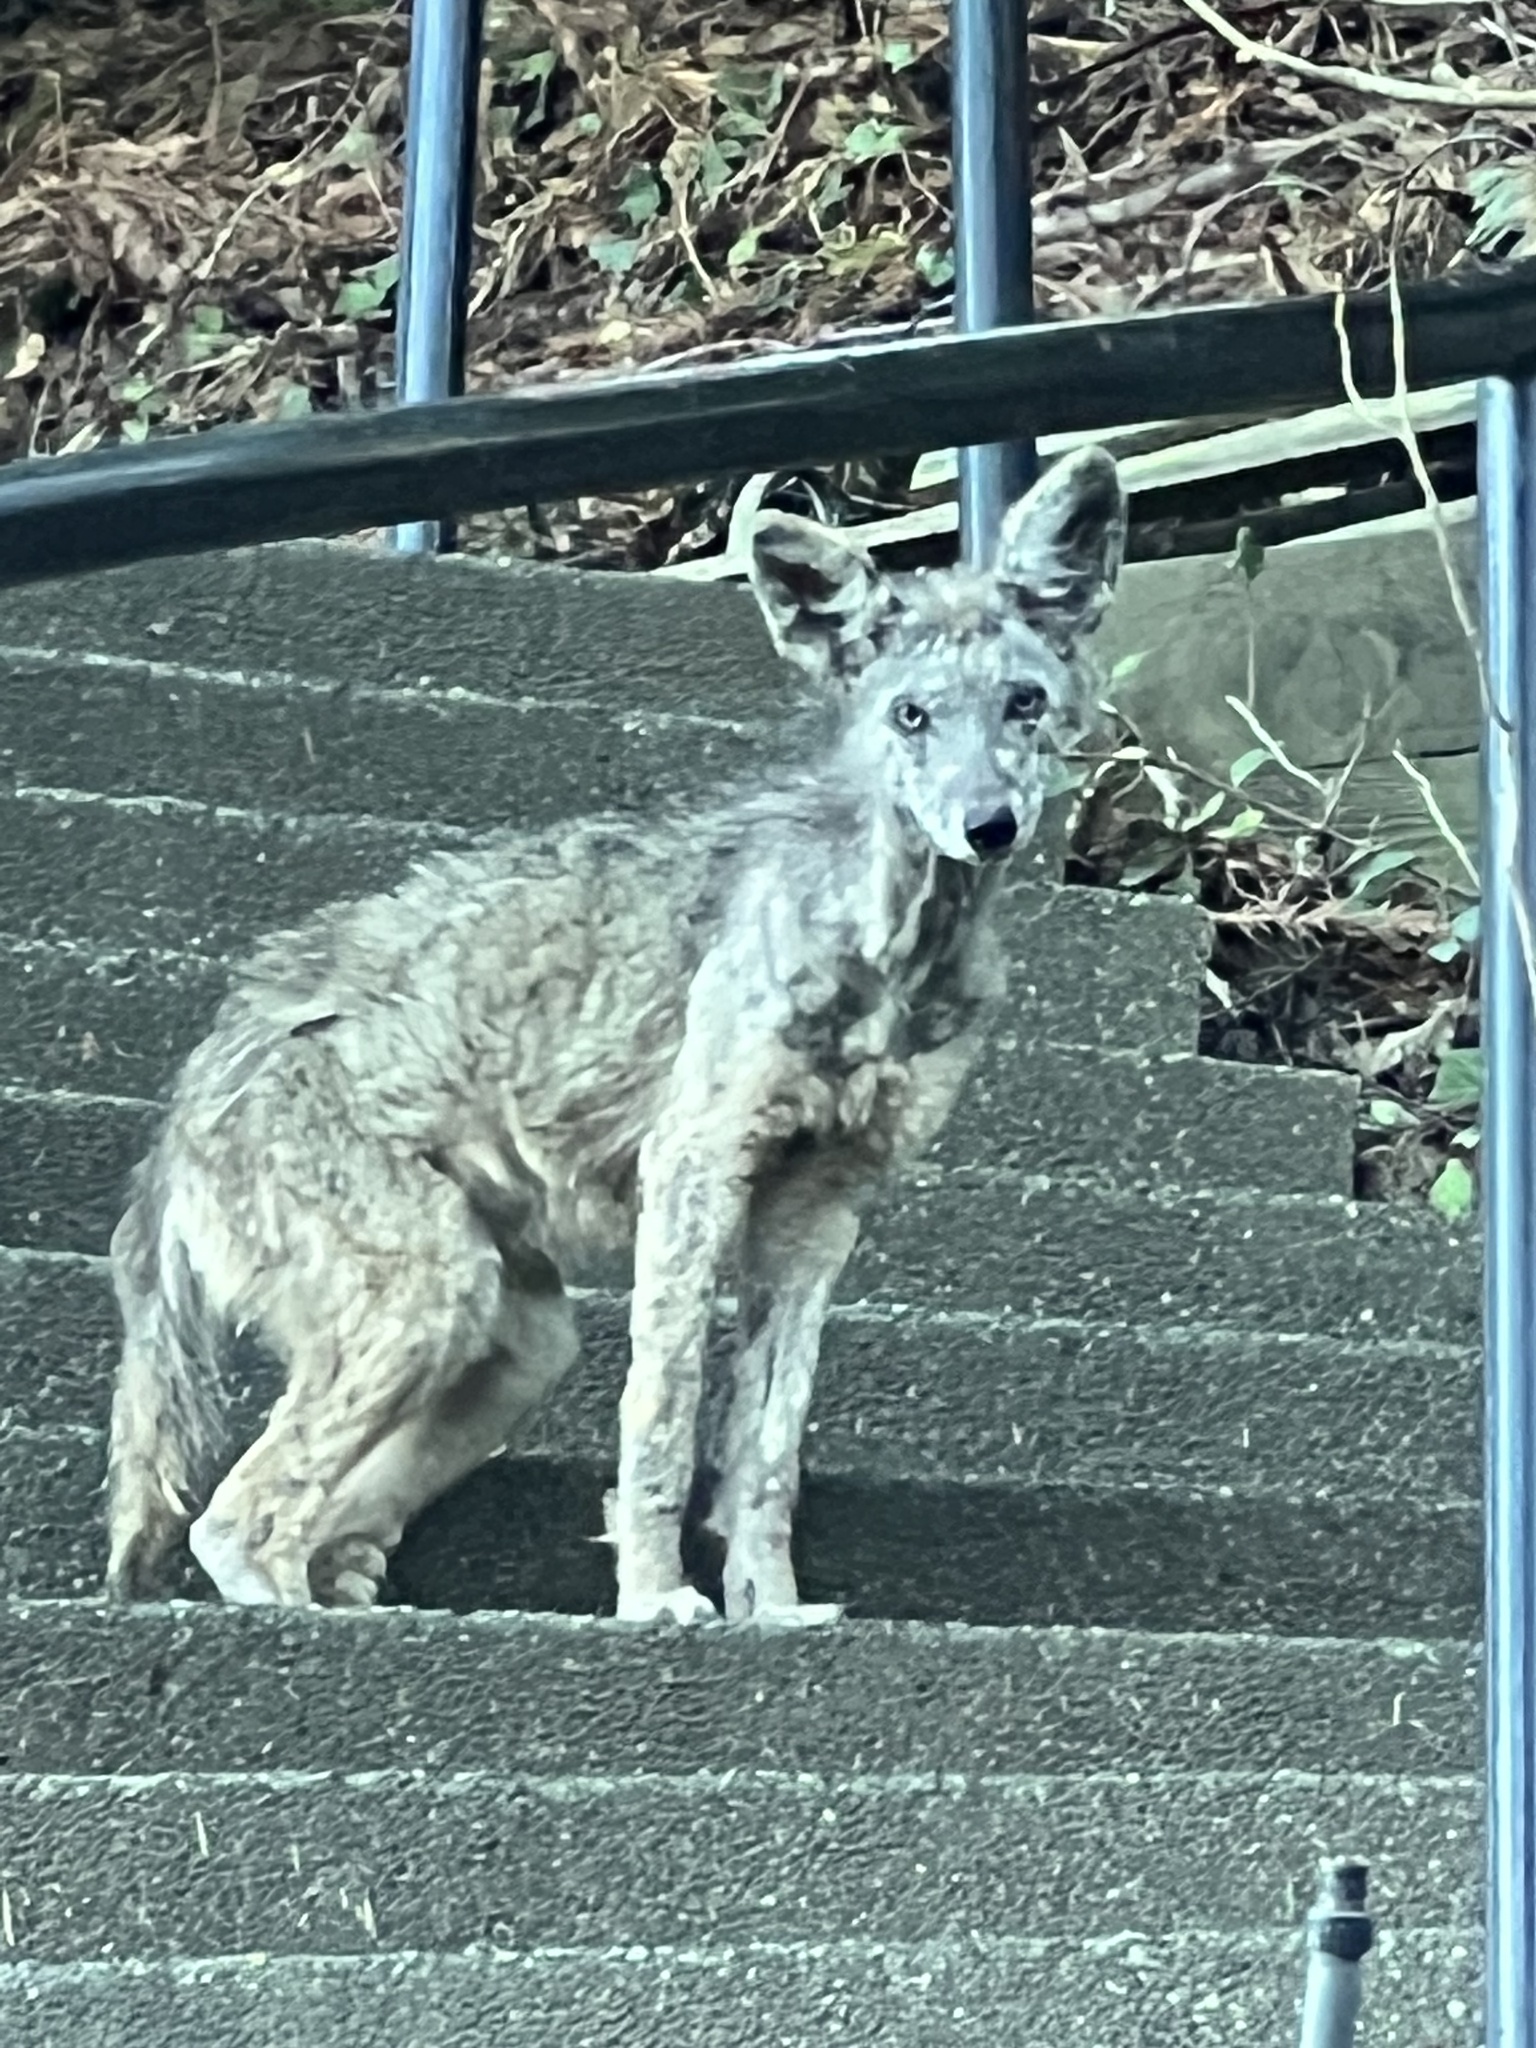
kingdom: Animalia
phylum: Chordata
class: Mammalia
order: Carnivora
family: Canidae
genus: Canis
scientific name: Canis latrans
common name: Coyote
